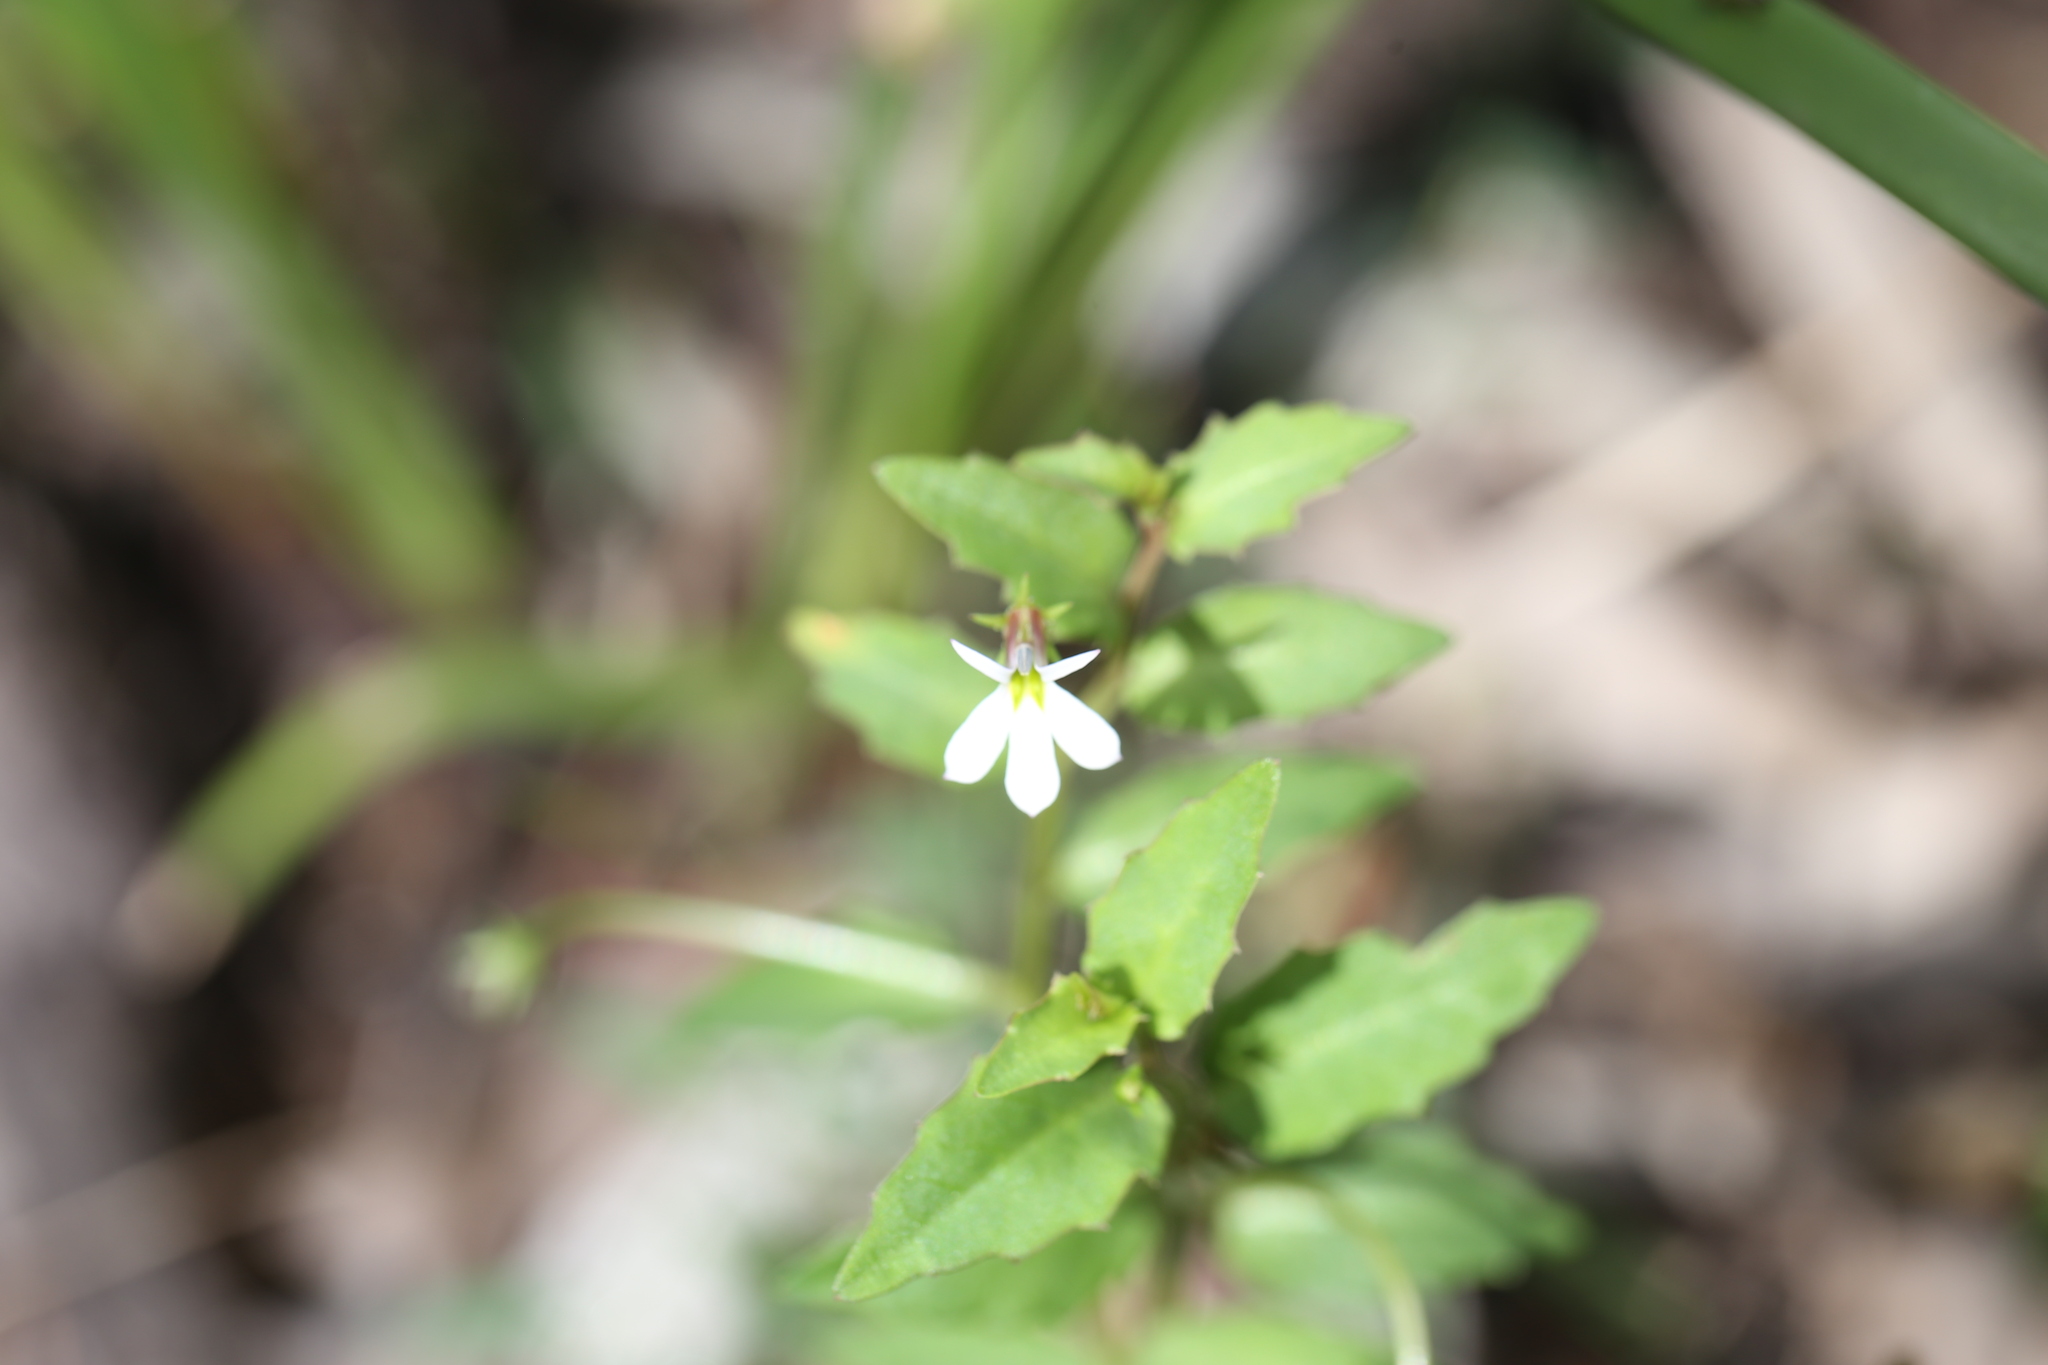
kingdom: Plantae
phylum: Tracheophyta
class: Magnoliopsida
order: Asterales
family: Campanulaceae
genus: Lobelia
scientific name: Lobelia purpurascens
